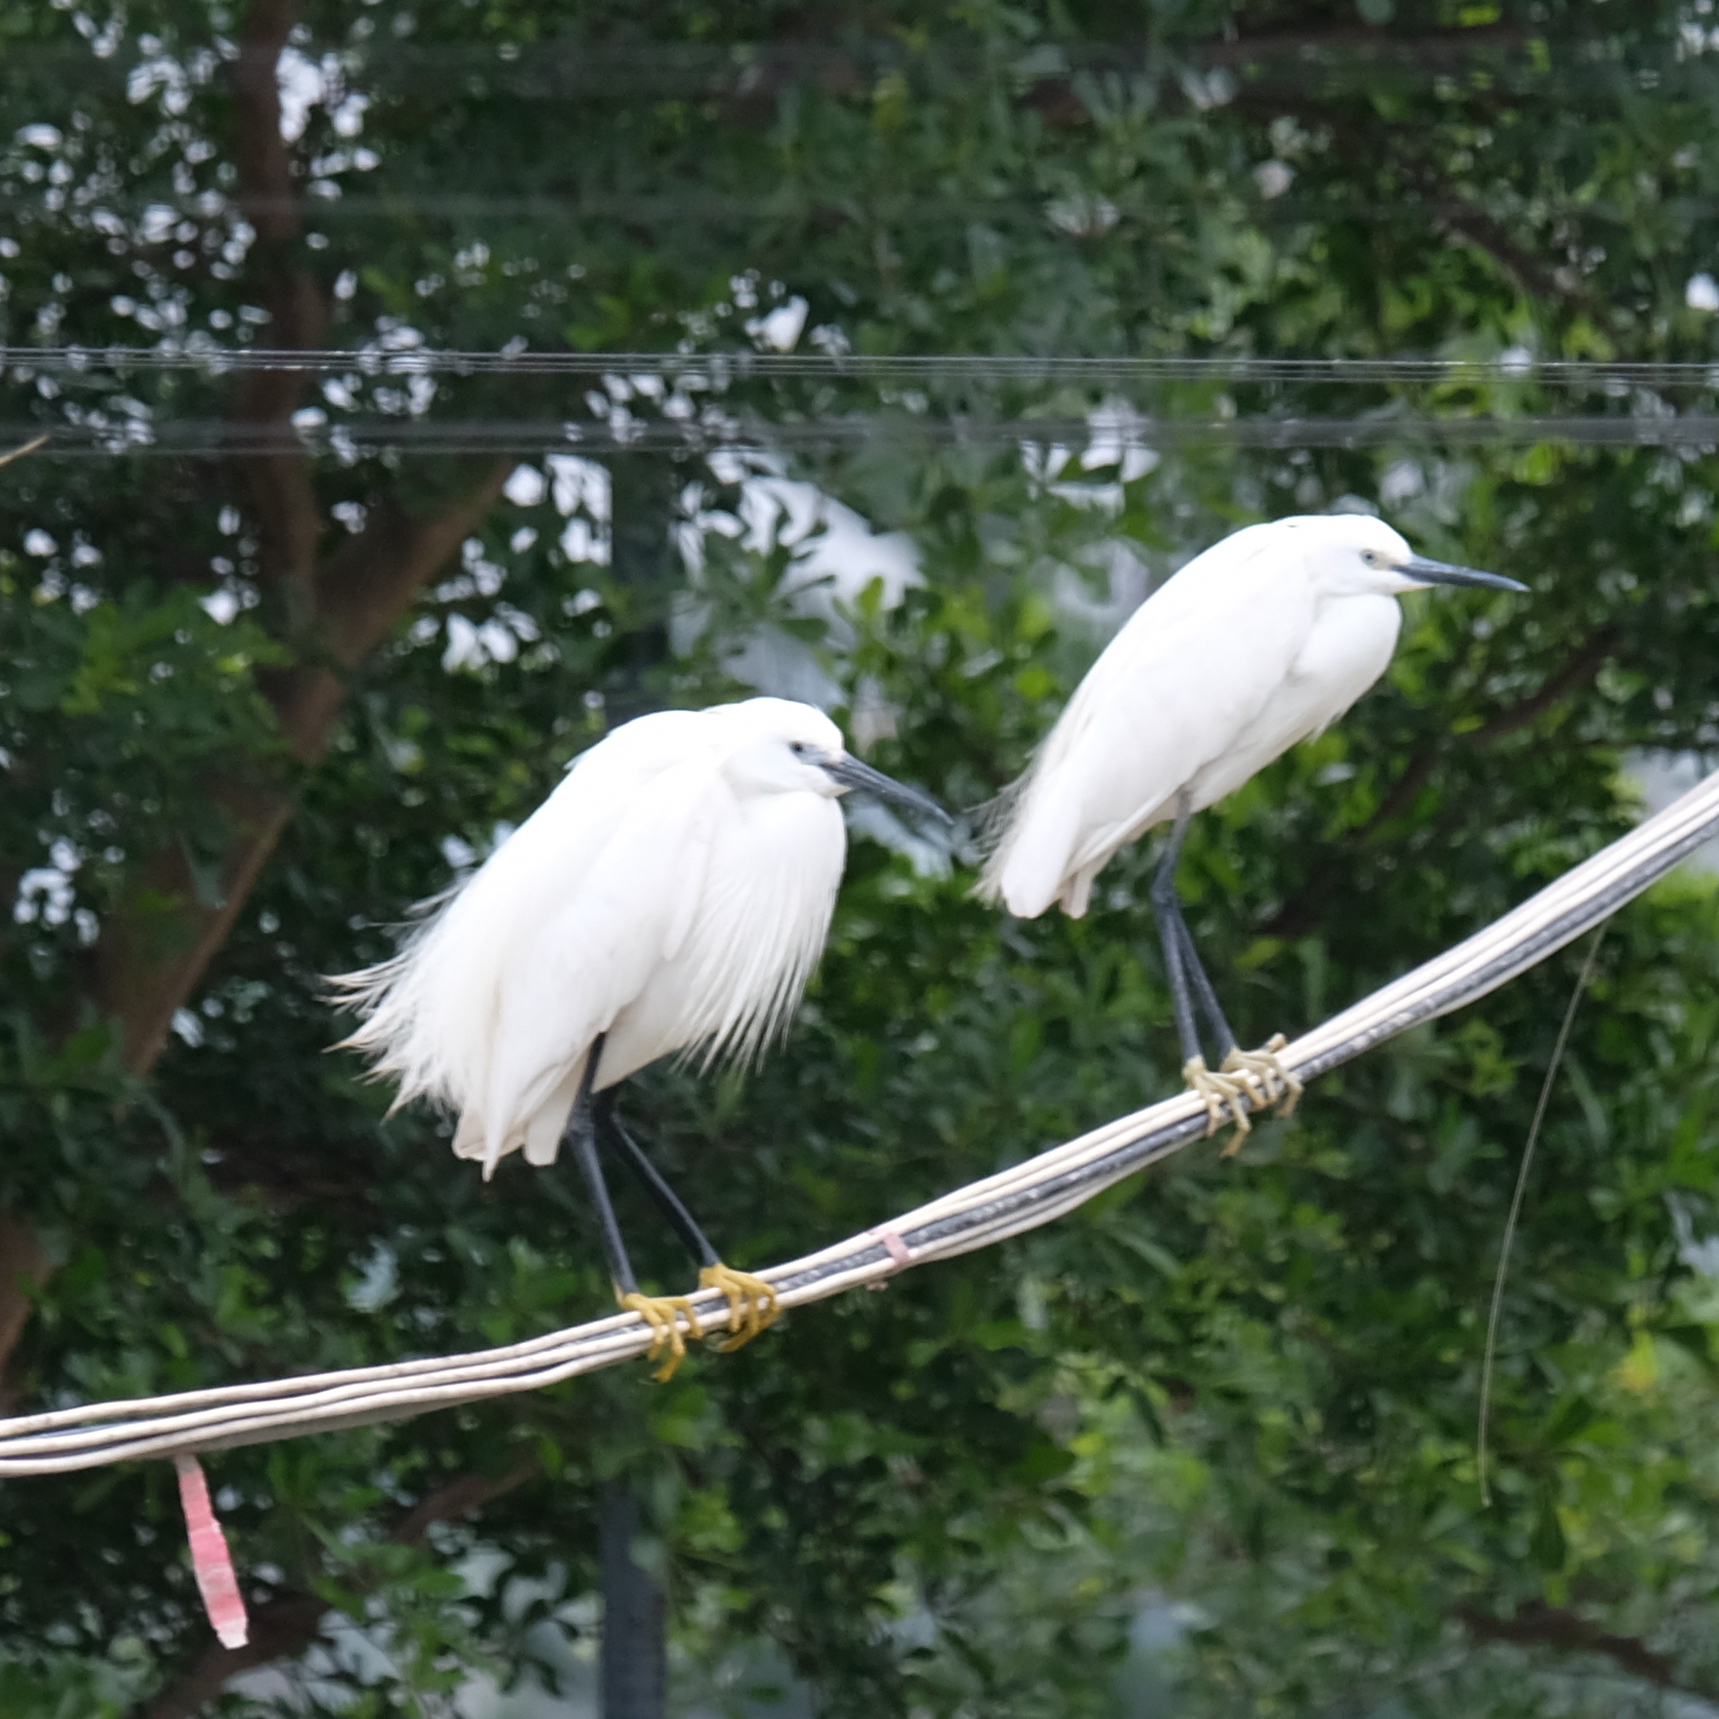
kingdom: Animalia
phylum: Chordata
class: Aves
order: Pelecaniformes
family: Ardeidae
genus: Egretta
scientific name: Egretta garzetta
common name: Little egret
